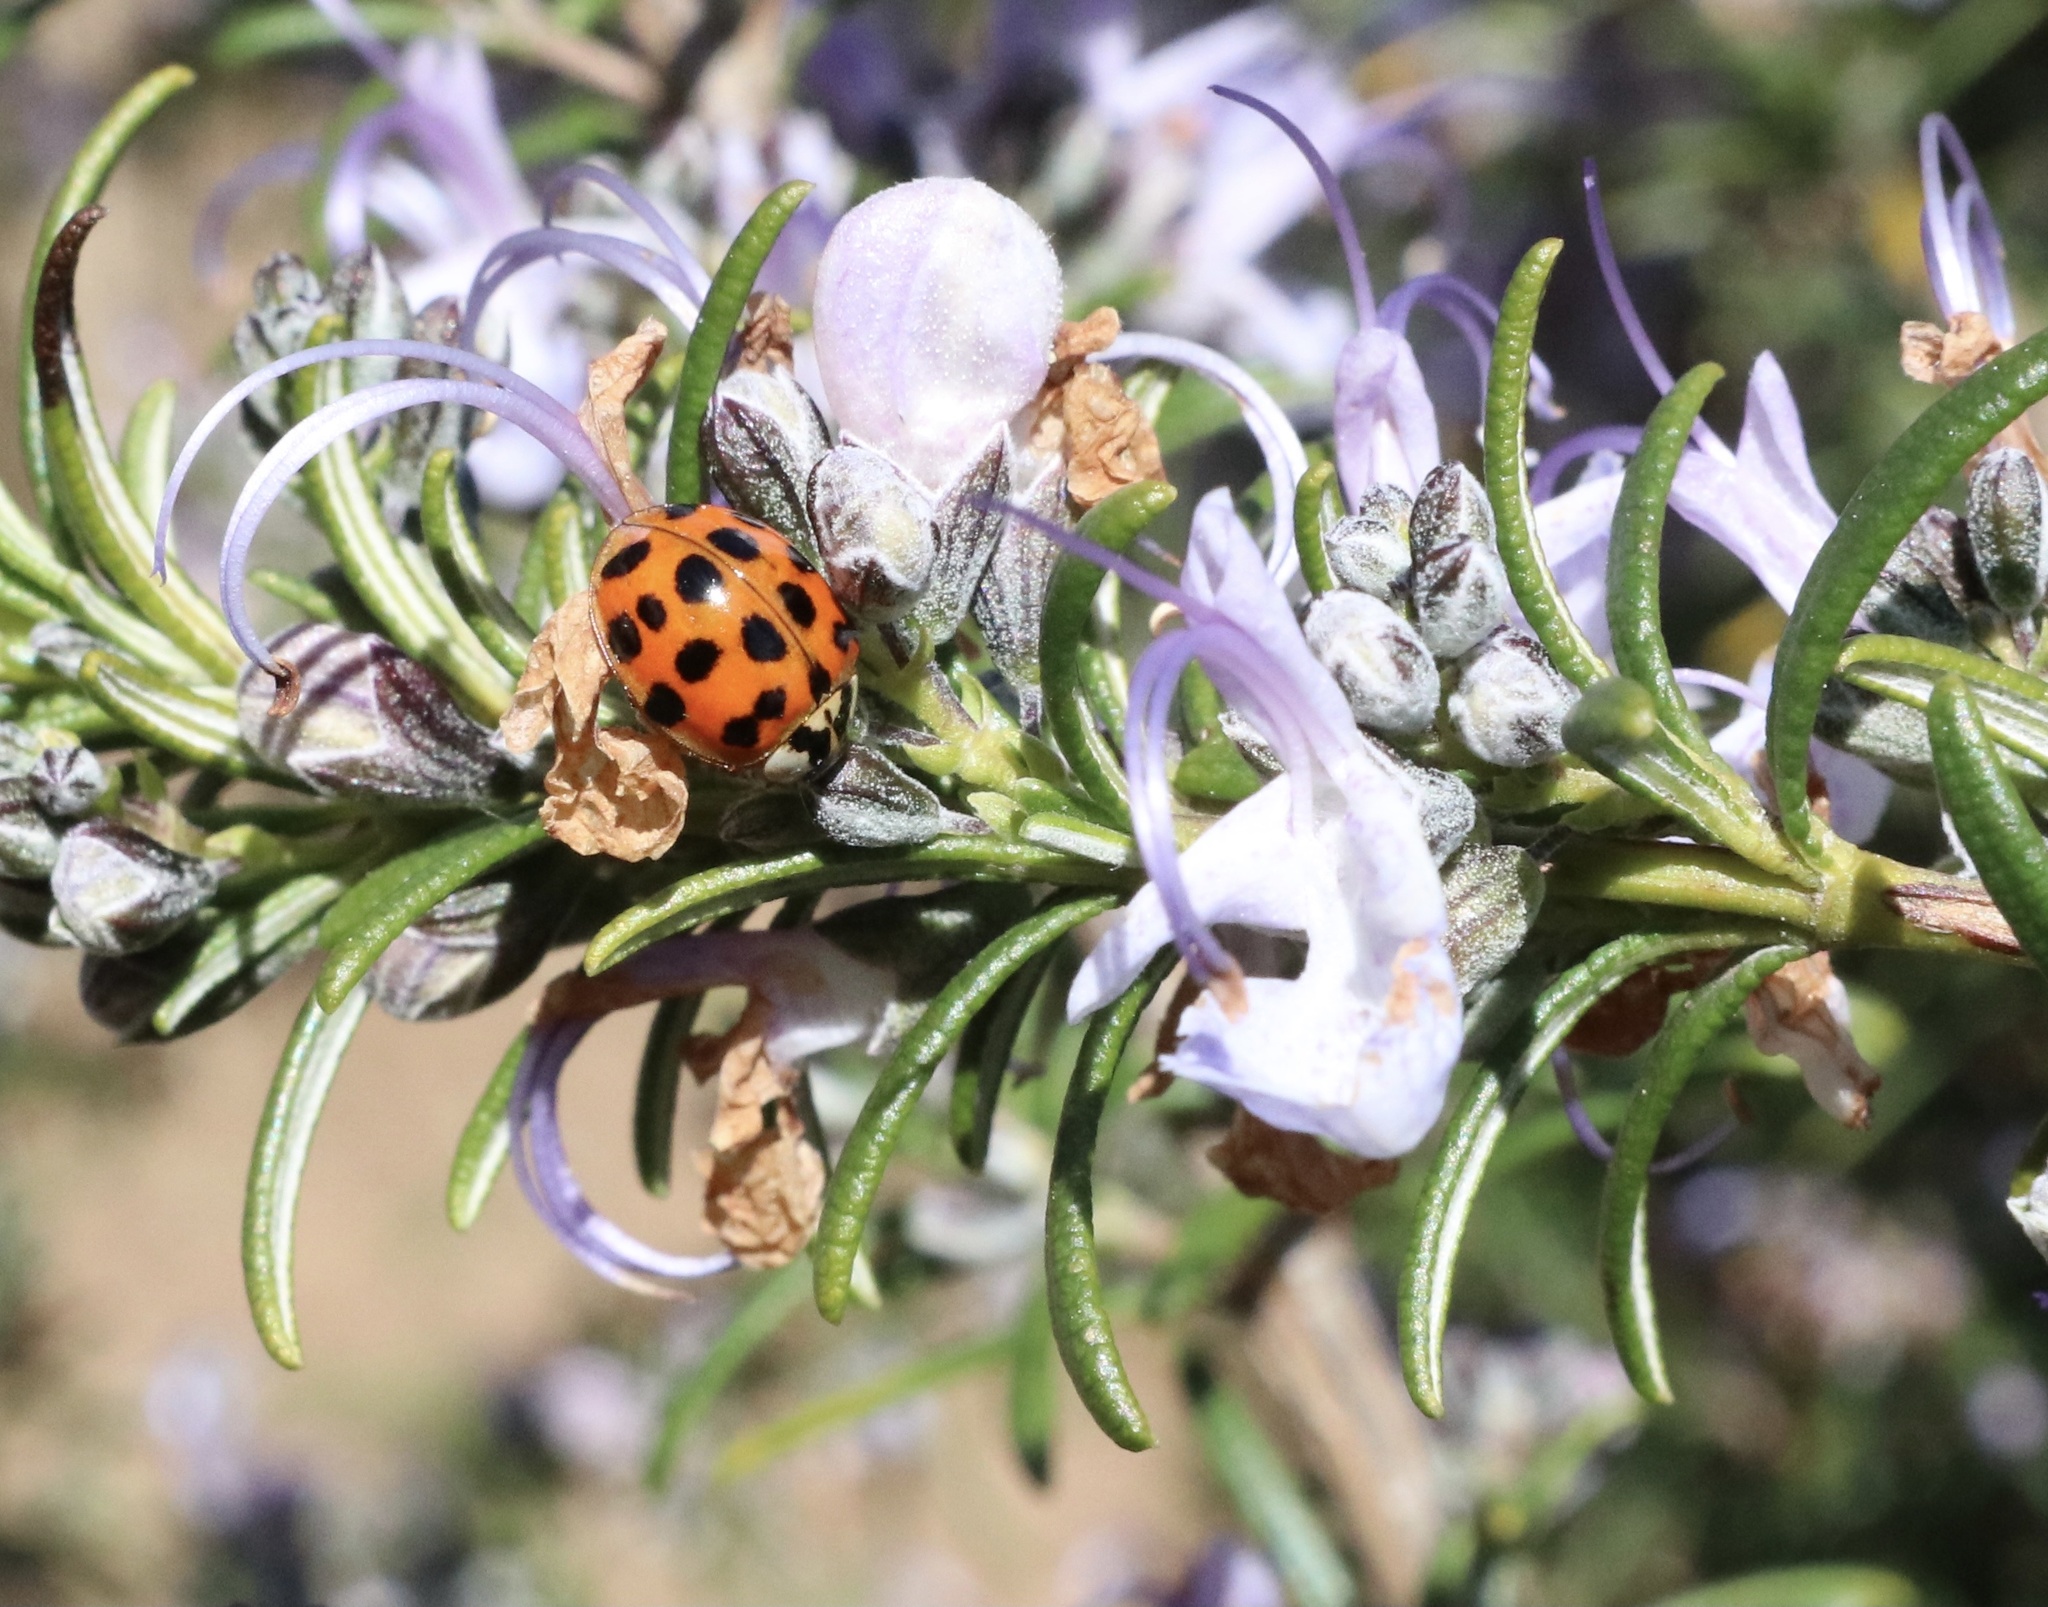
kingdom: Animalia
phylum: Arthropoda
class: Insecta
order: Coleoptera
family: Coccinellidae
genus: Harmonia
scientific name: Harmonia axyridis
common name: Harlequin ladybird
